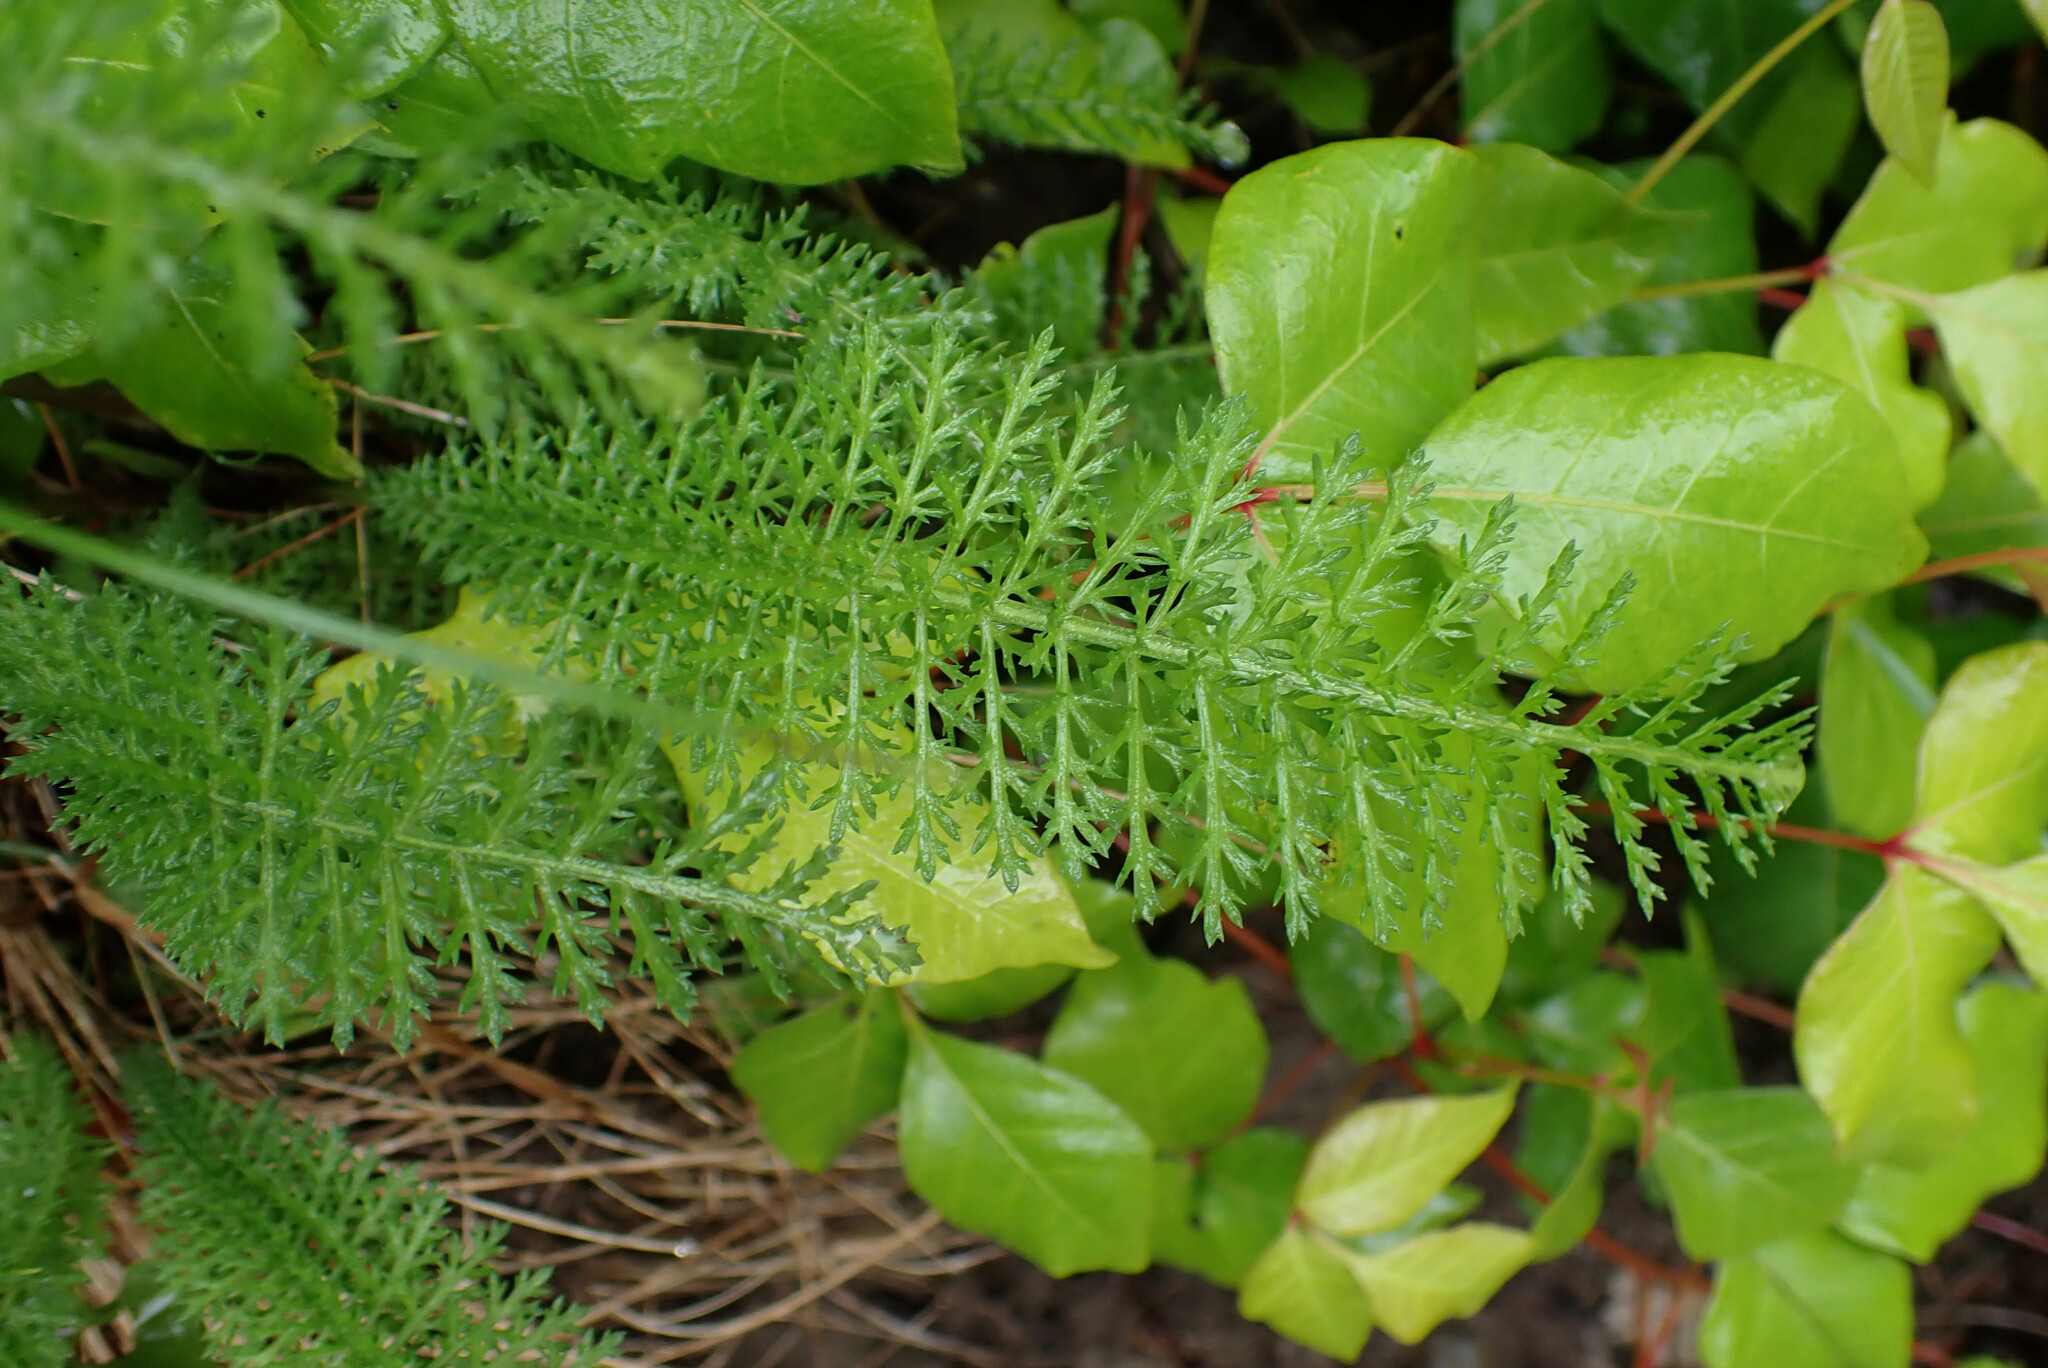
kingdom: Plantae
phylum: Tracheophyta
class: Magnoliopsida
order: Asterales
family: Asteraceae
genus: Achillea
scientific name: Achillea millefolium
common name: Yarrow
